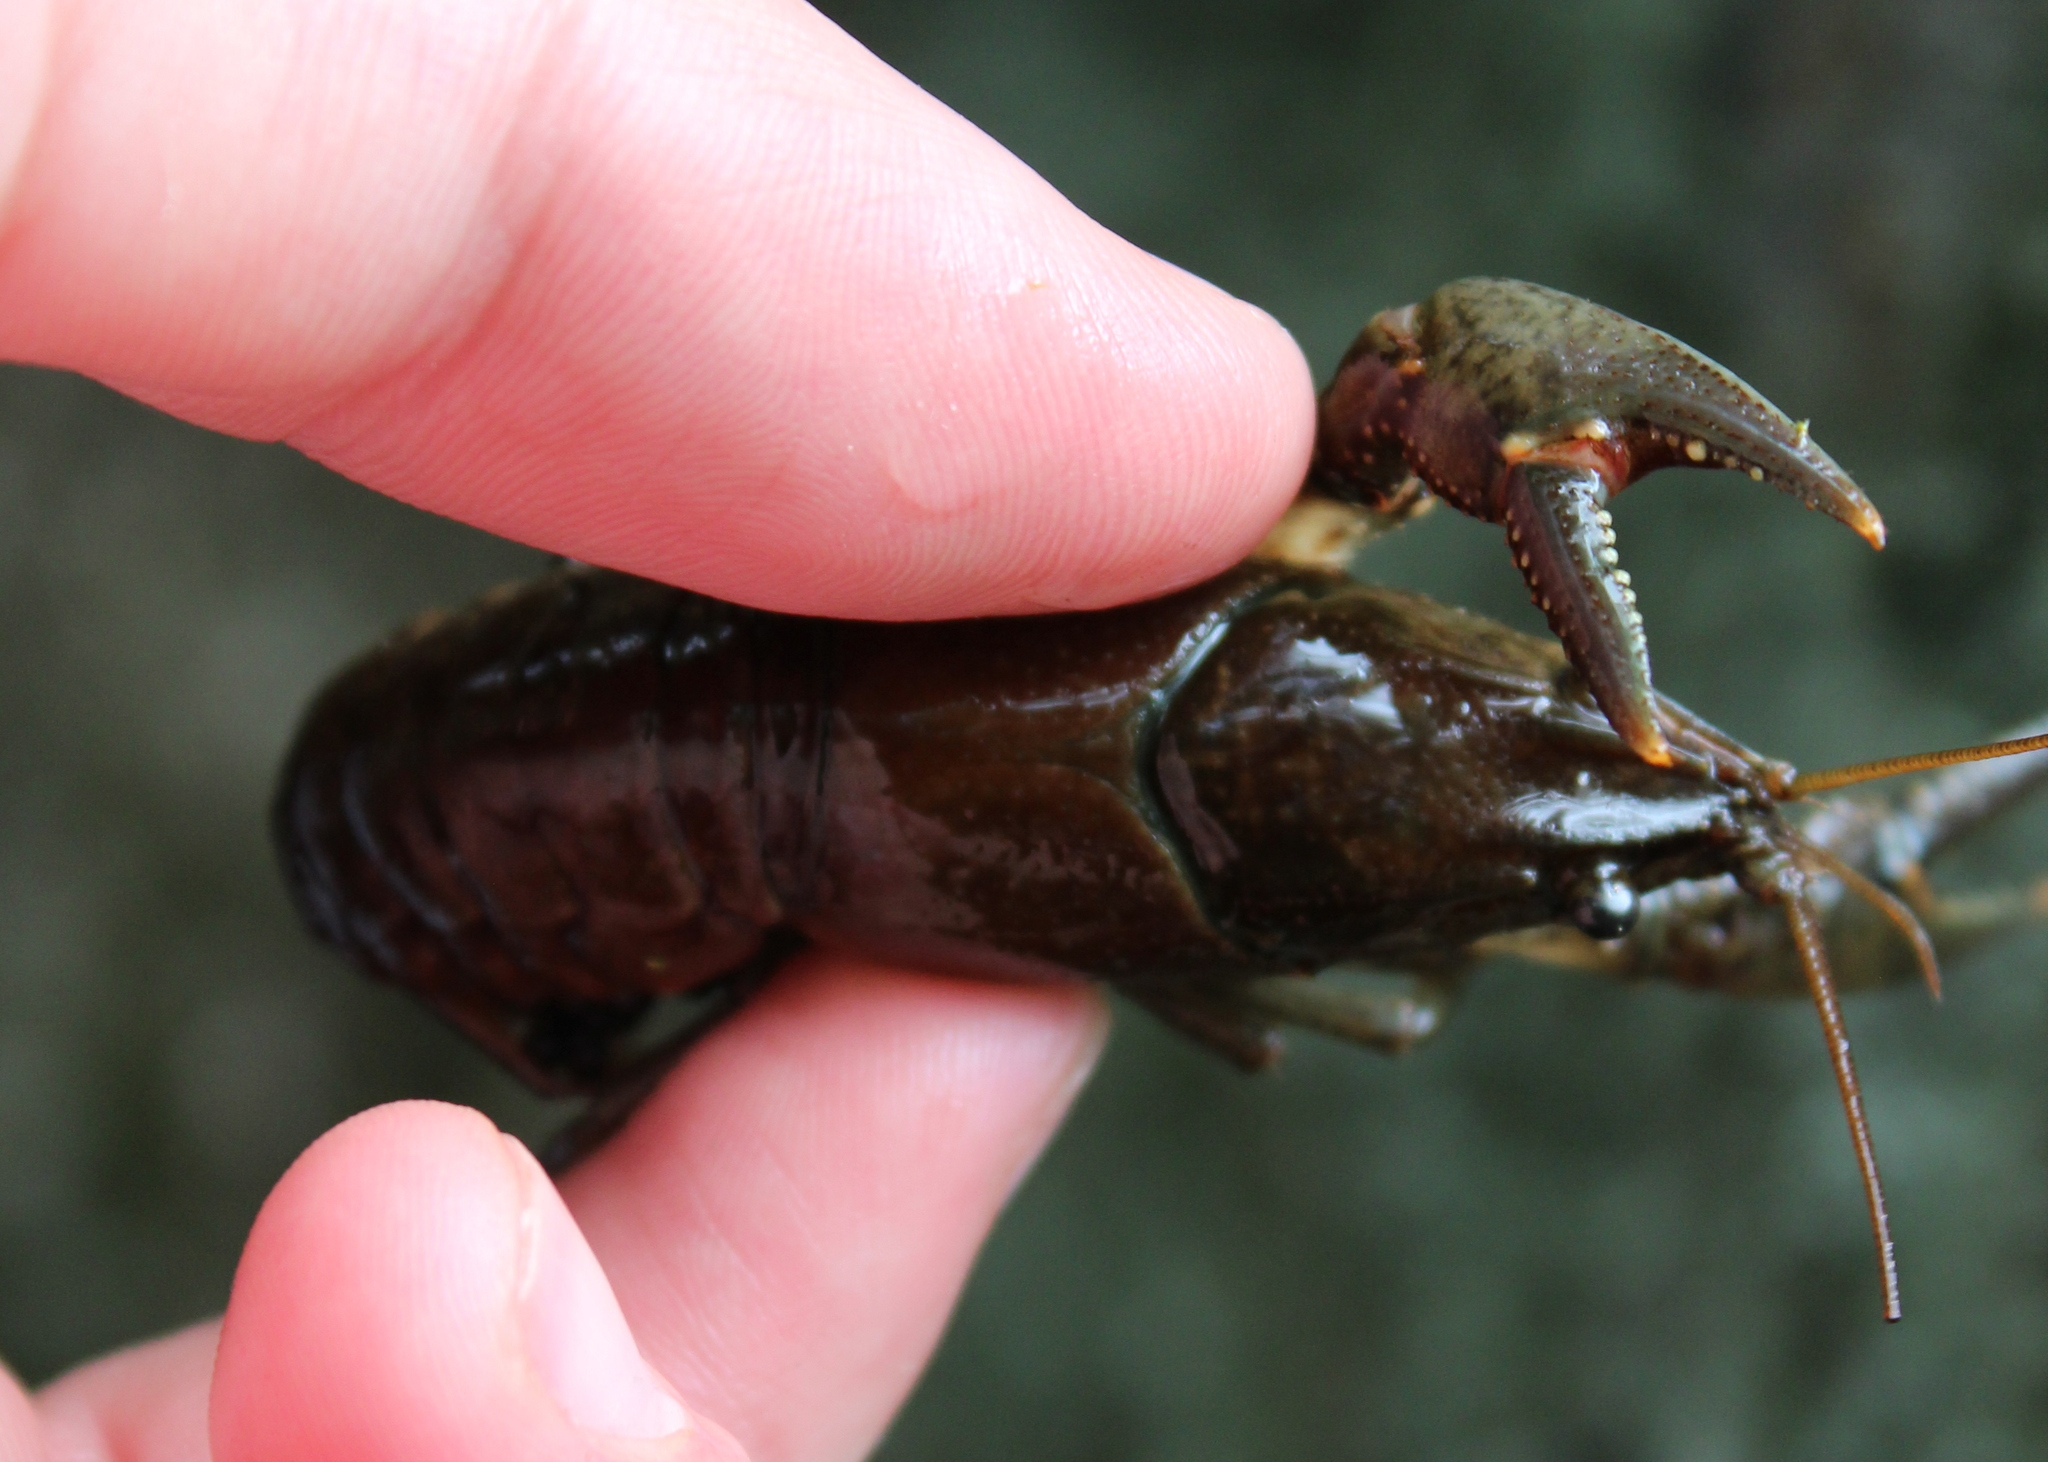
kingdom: Animalia
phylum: Arthropoda
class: Malacostraca
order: Decapoda
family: Cambaridae
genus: Faxonius
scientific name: Faxonius virilis
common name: Virile crayfish
